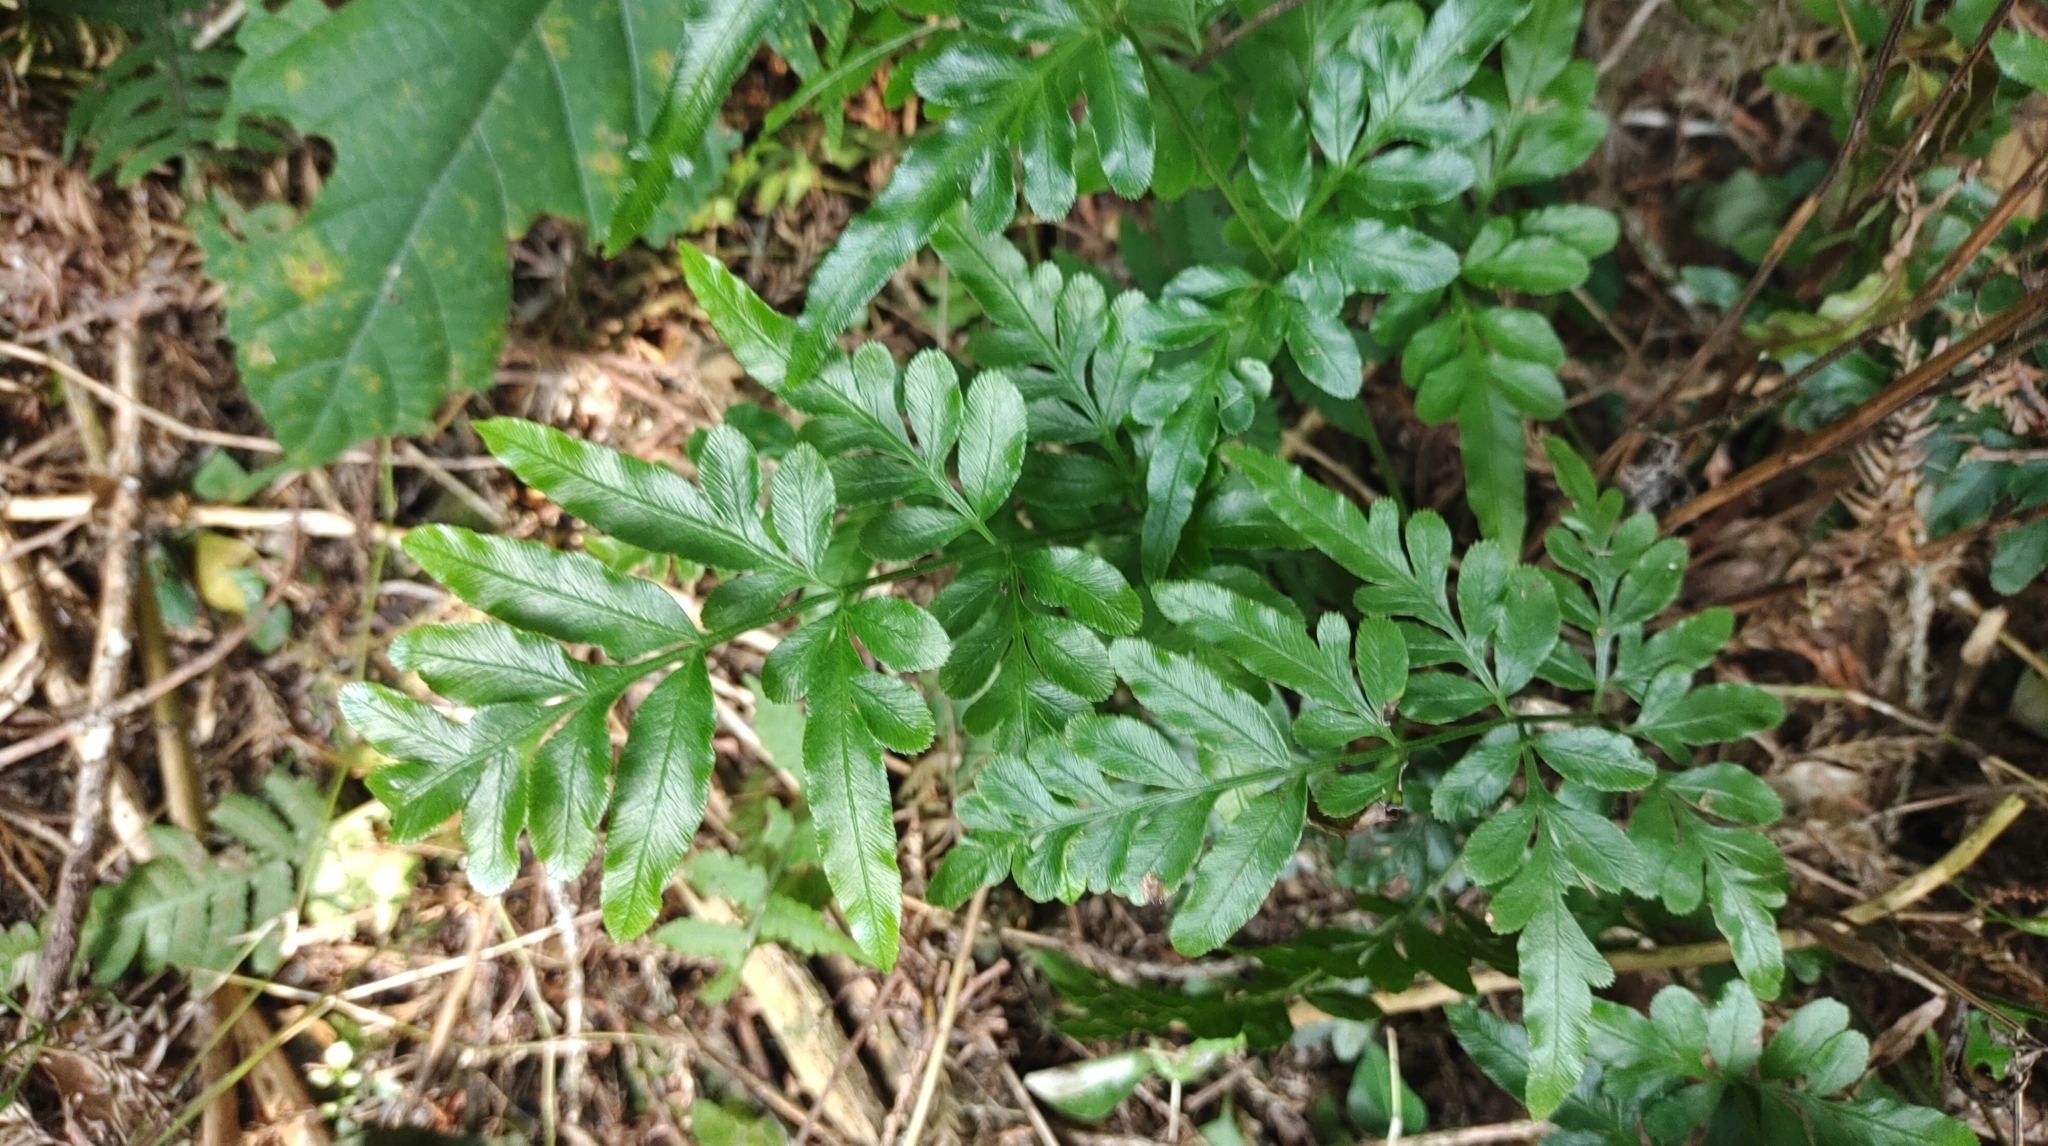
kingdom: Plantae
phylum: Tracheophyta
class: Polypodiopsida
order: Polypodiales
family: Pteridaceae
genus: Pteris
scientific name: Pteris ensiformis
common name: Sword brake
